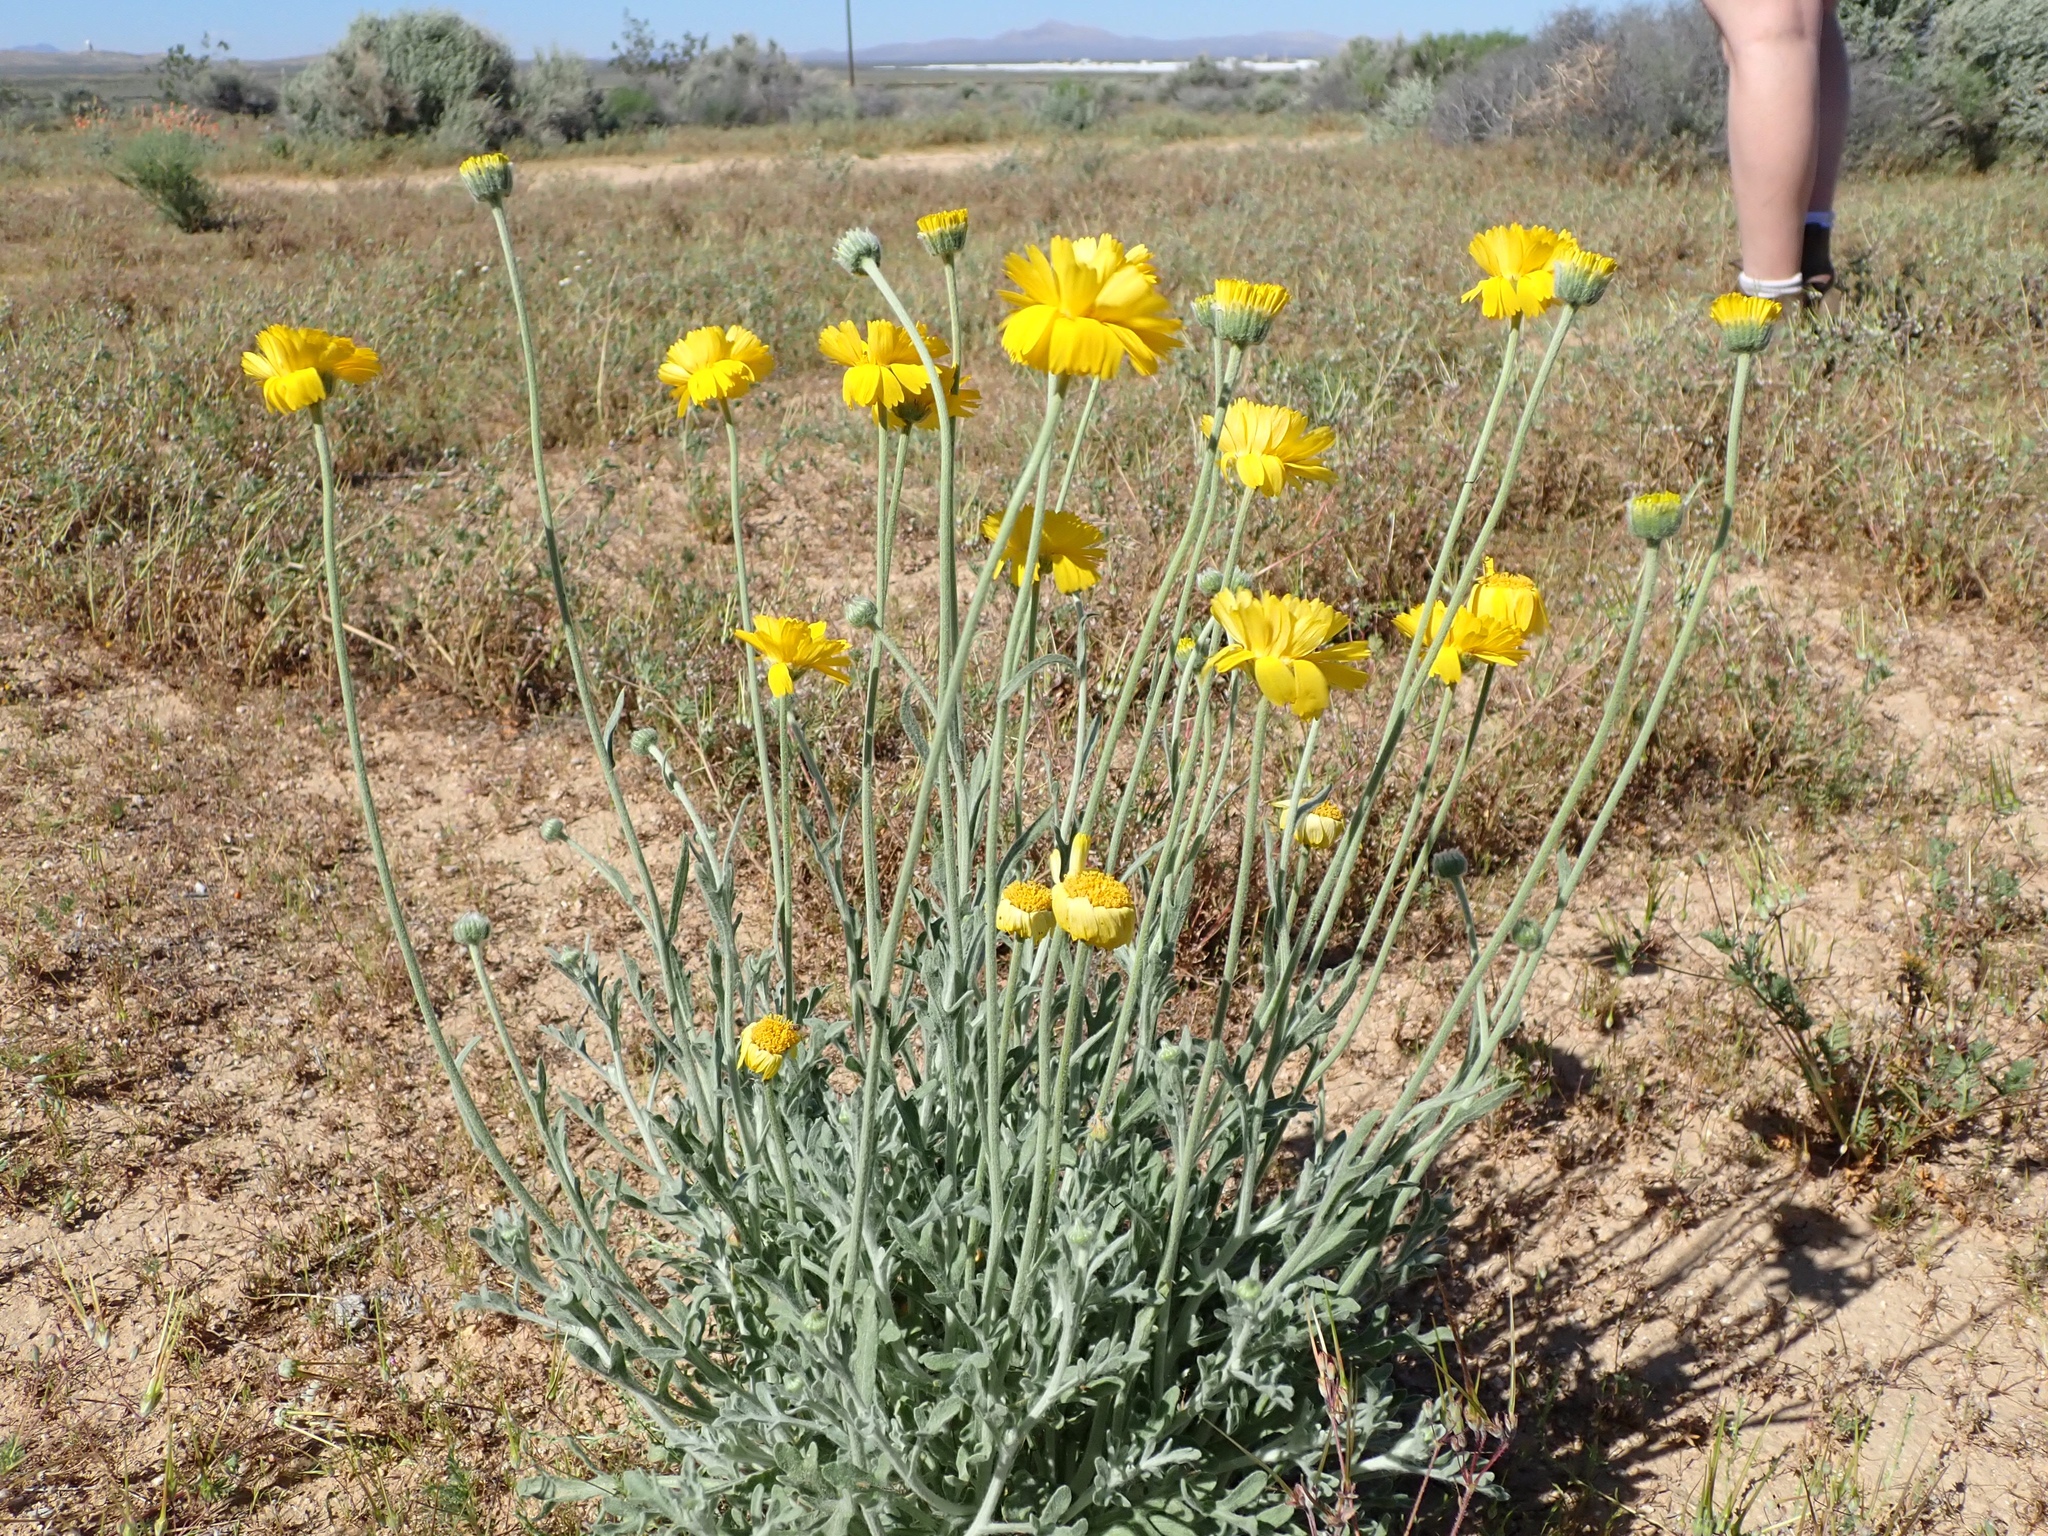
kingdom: Plantae
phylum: Tracheophyta
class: Magnoliopsida
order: Asterales
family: Asteraceae
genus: Baileya
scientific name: Baileya multiradiata
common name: Desert-marigold
